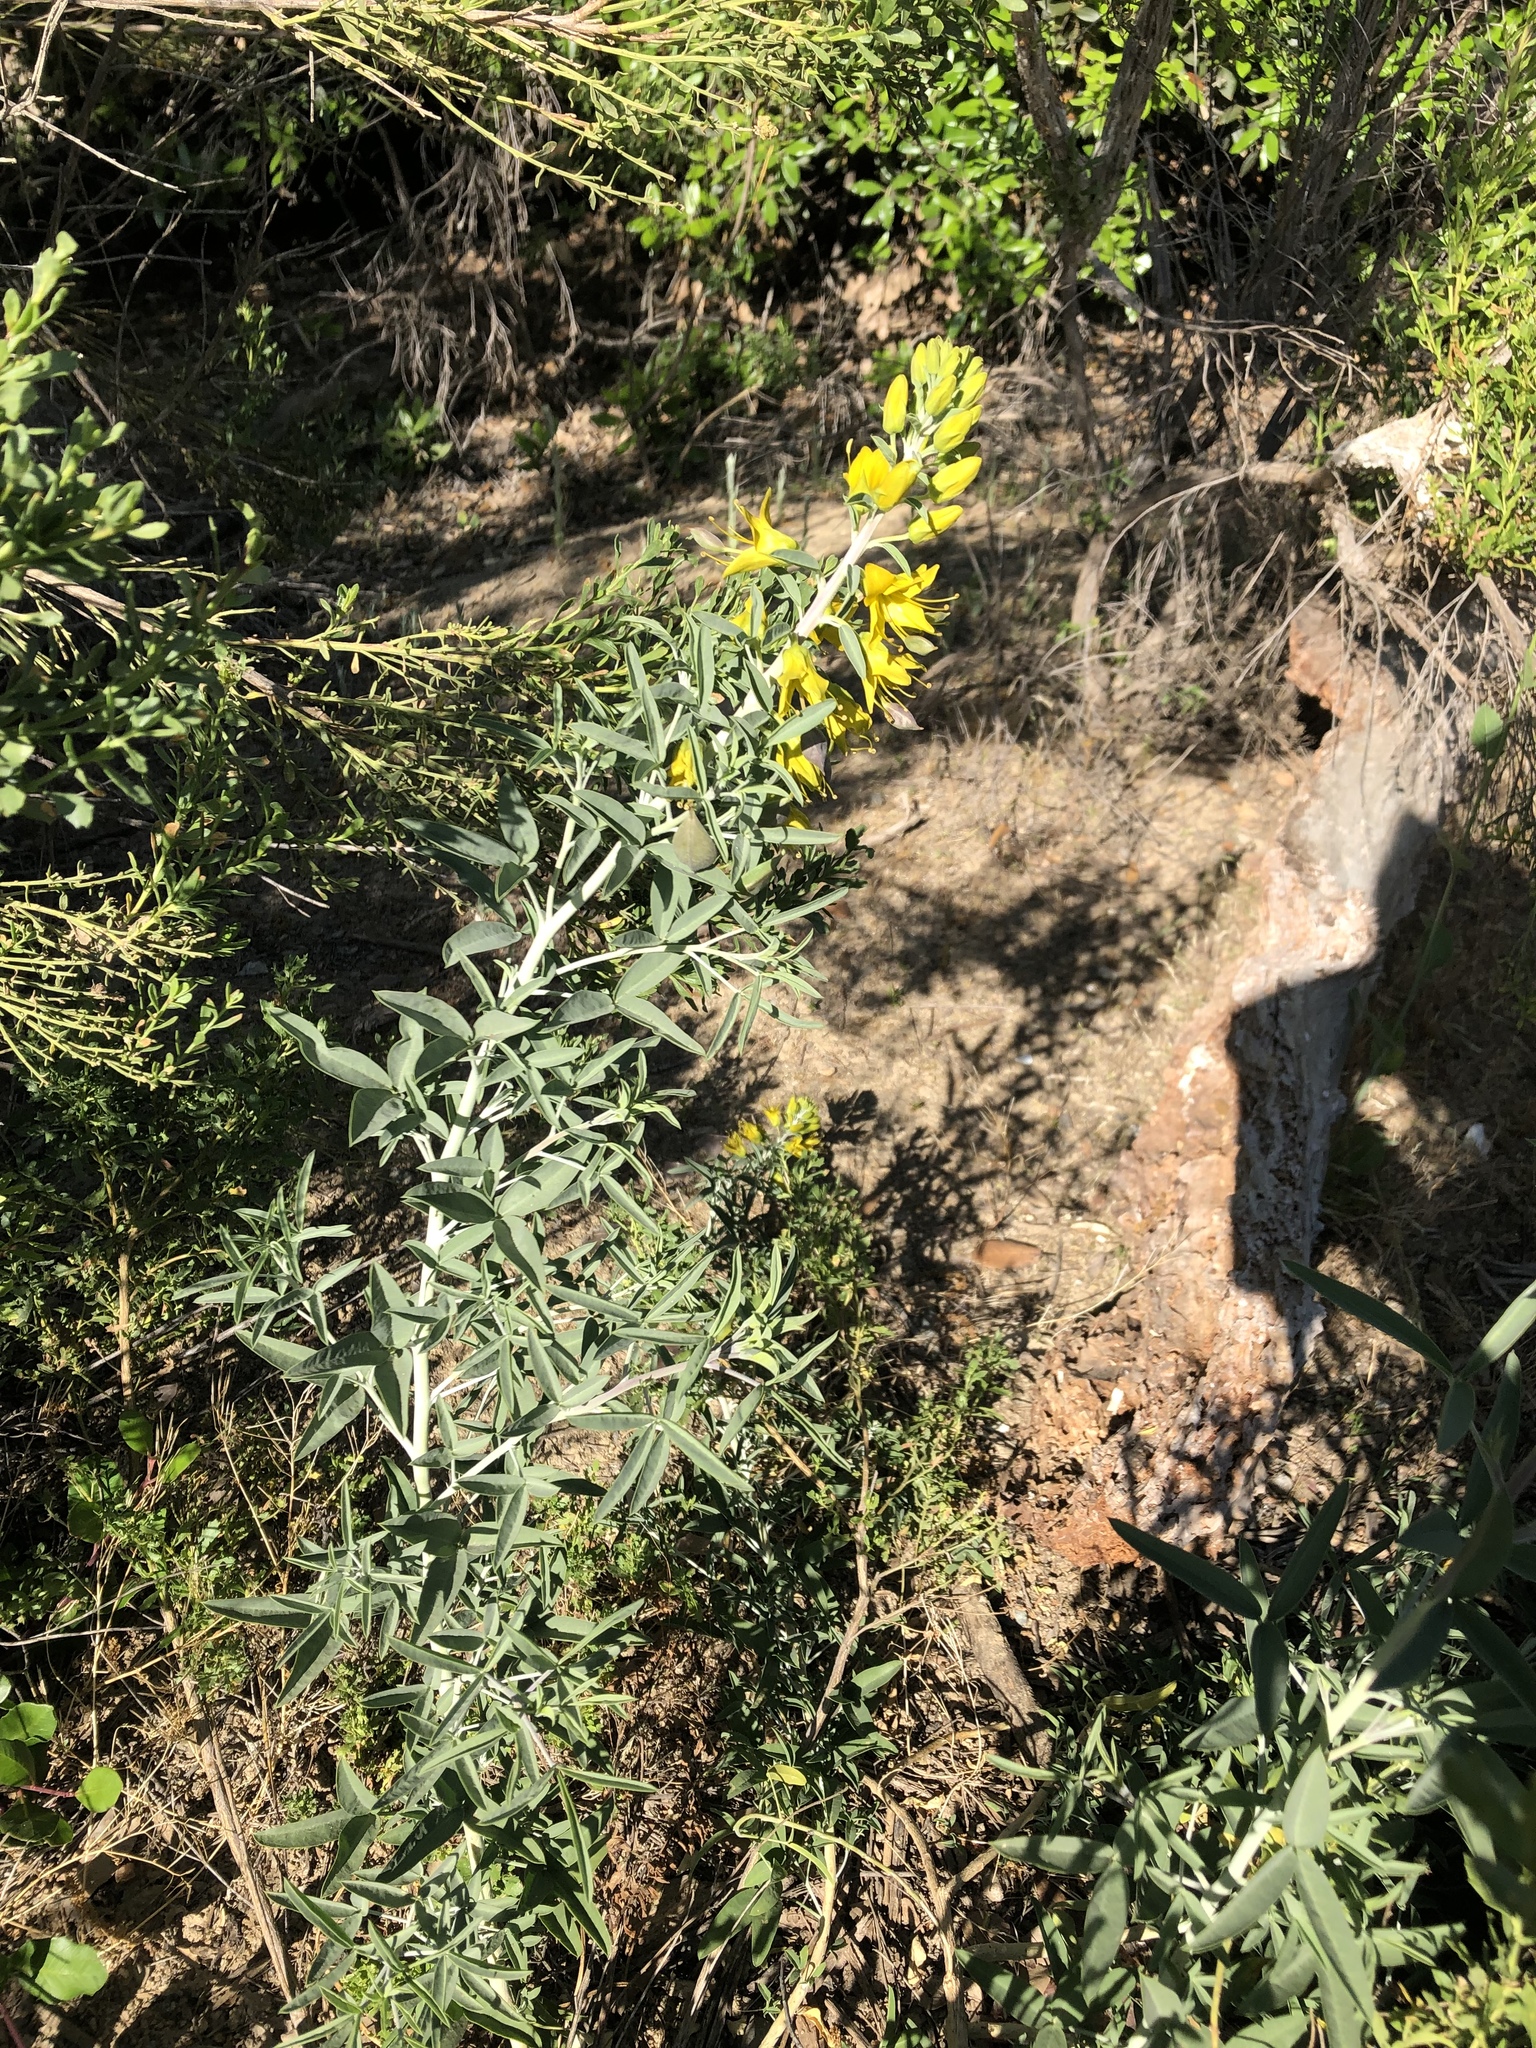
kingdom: Plantae
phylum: Tracheophyta
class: Magnoliopsida
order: Brassicales
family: Cleomaceae
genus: Cleomella
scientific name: Cleomella arborea
